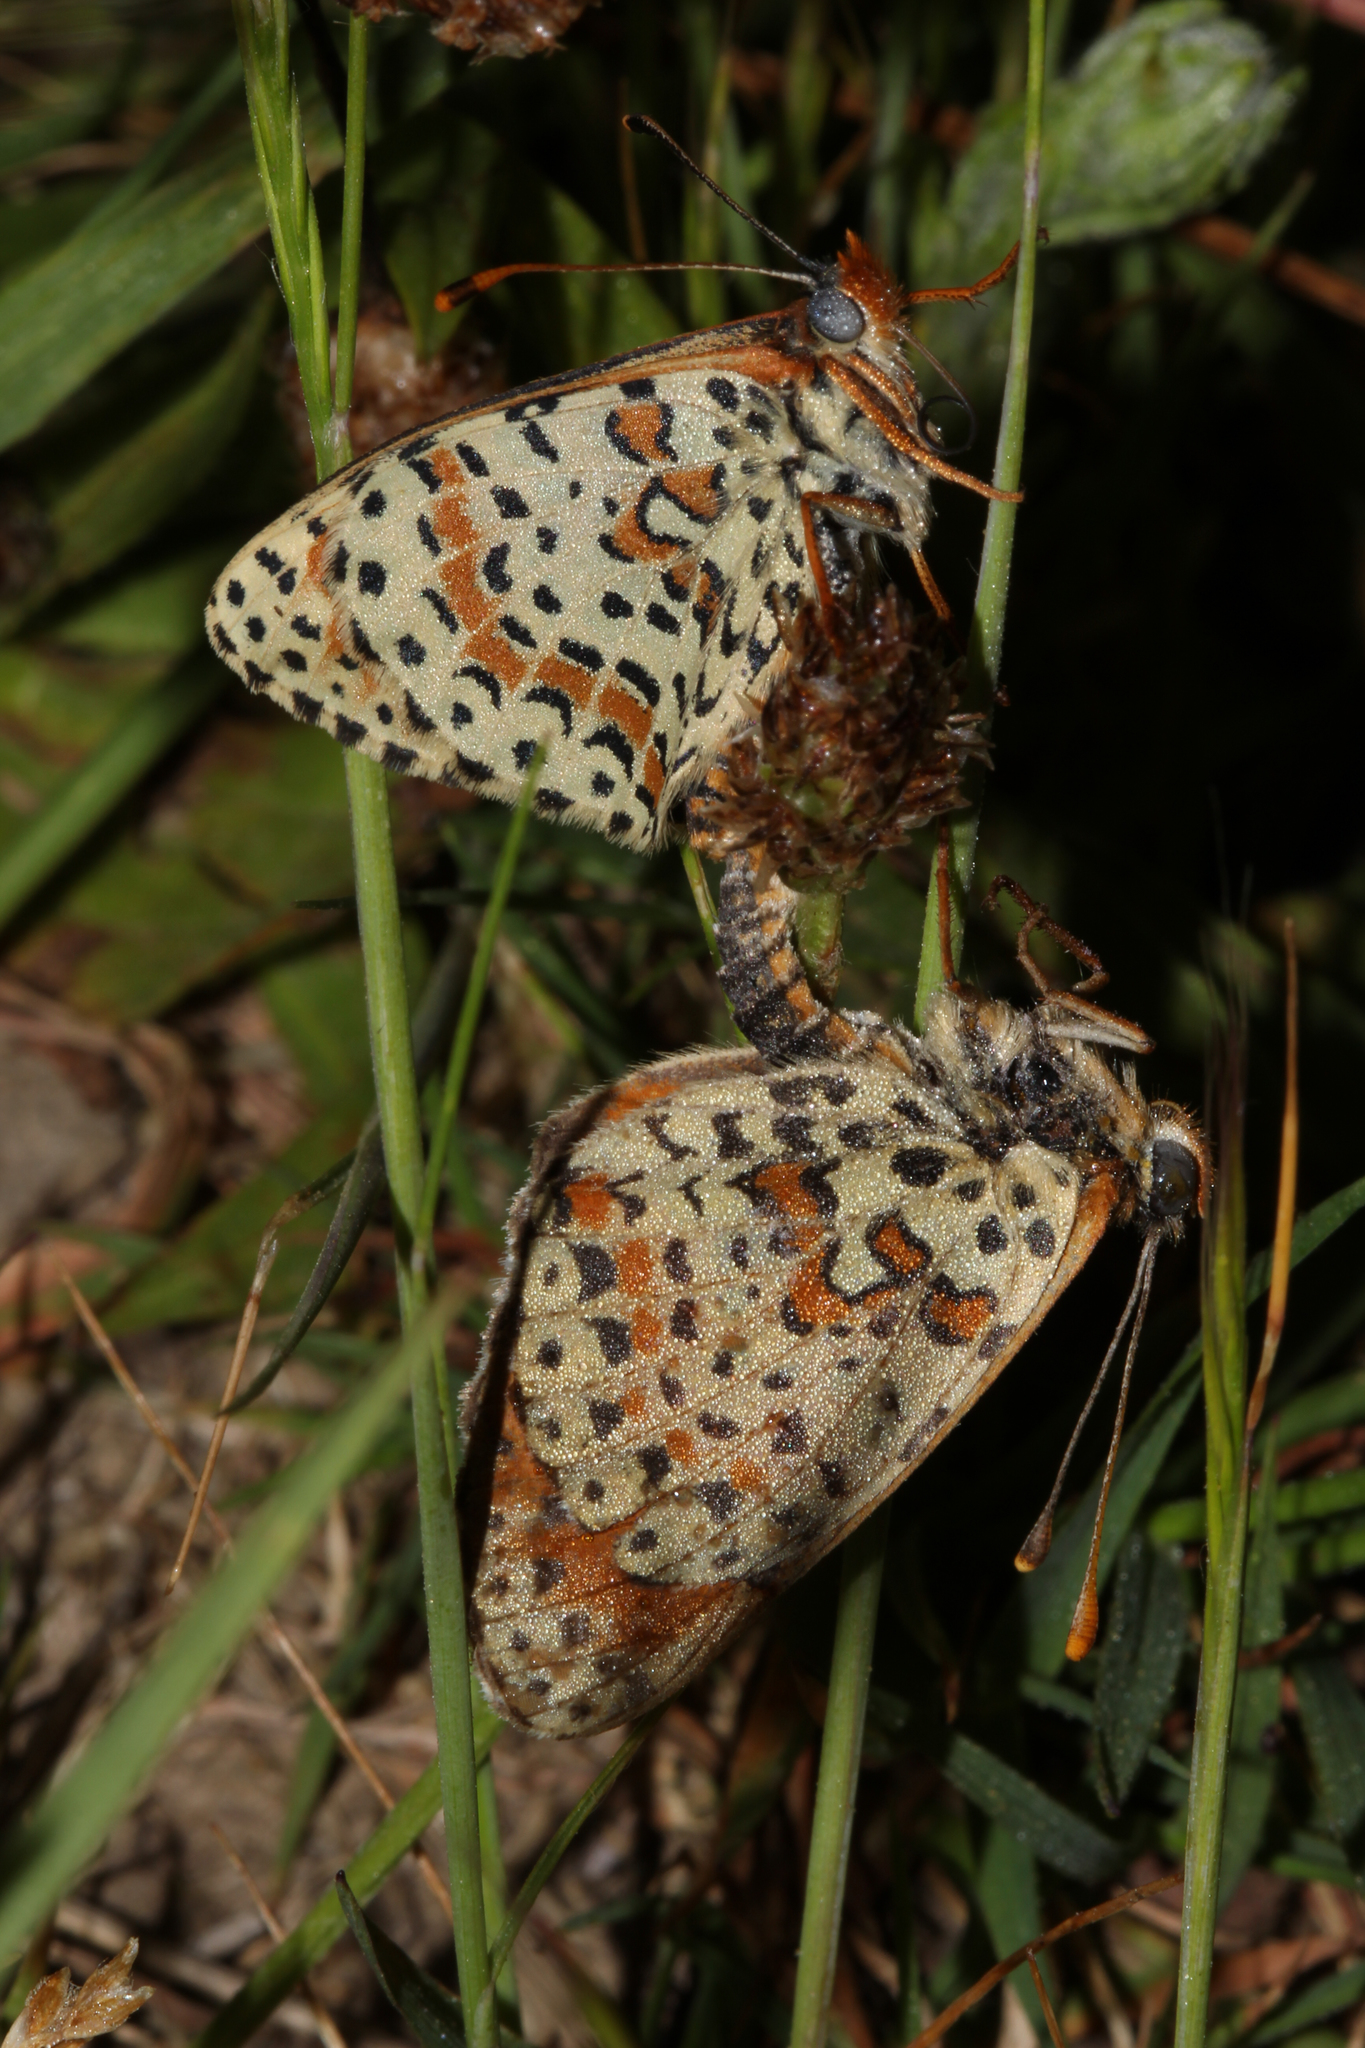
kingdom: Animalia
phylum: Arthropoda
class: Insecta
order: Lepidoptera
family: Nymphalidae
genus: Melitaea
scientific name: Melitaea didyma
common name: Spotted fritillary
